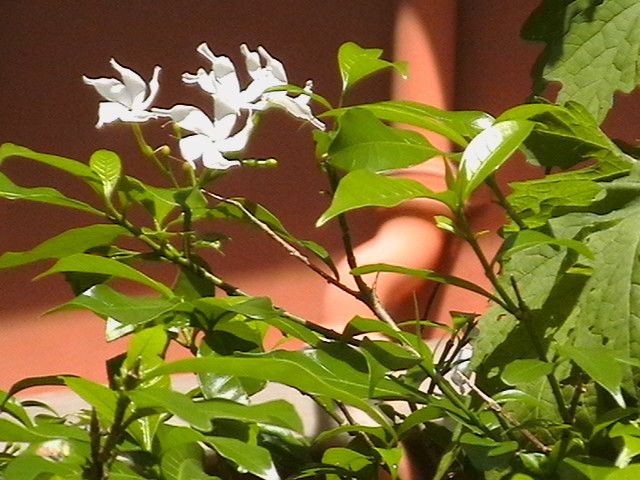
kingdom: Plantae
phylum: Tracheophyta
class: Magnoliopsida
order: Gentianales
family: Apocynaceae
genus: Tabernaemontana
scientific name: Tabernaemontana divaricata
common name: Pinwheelflower
